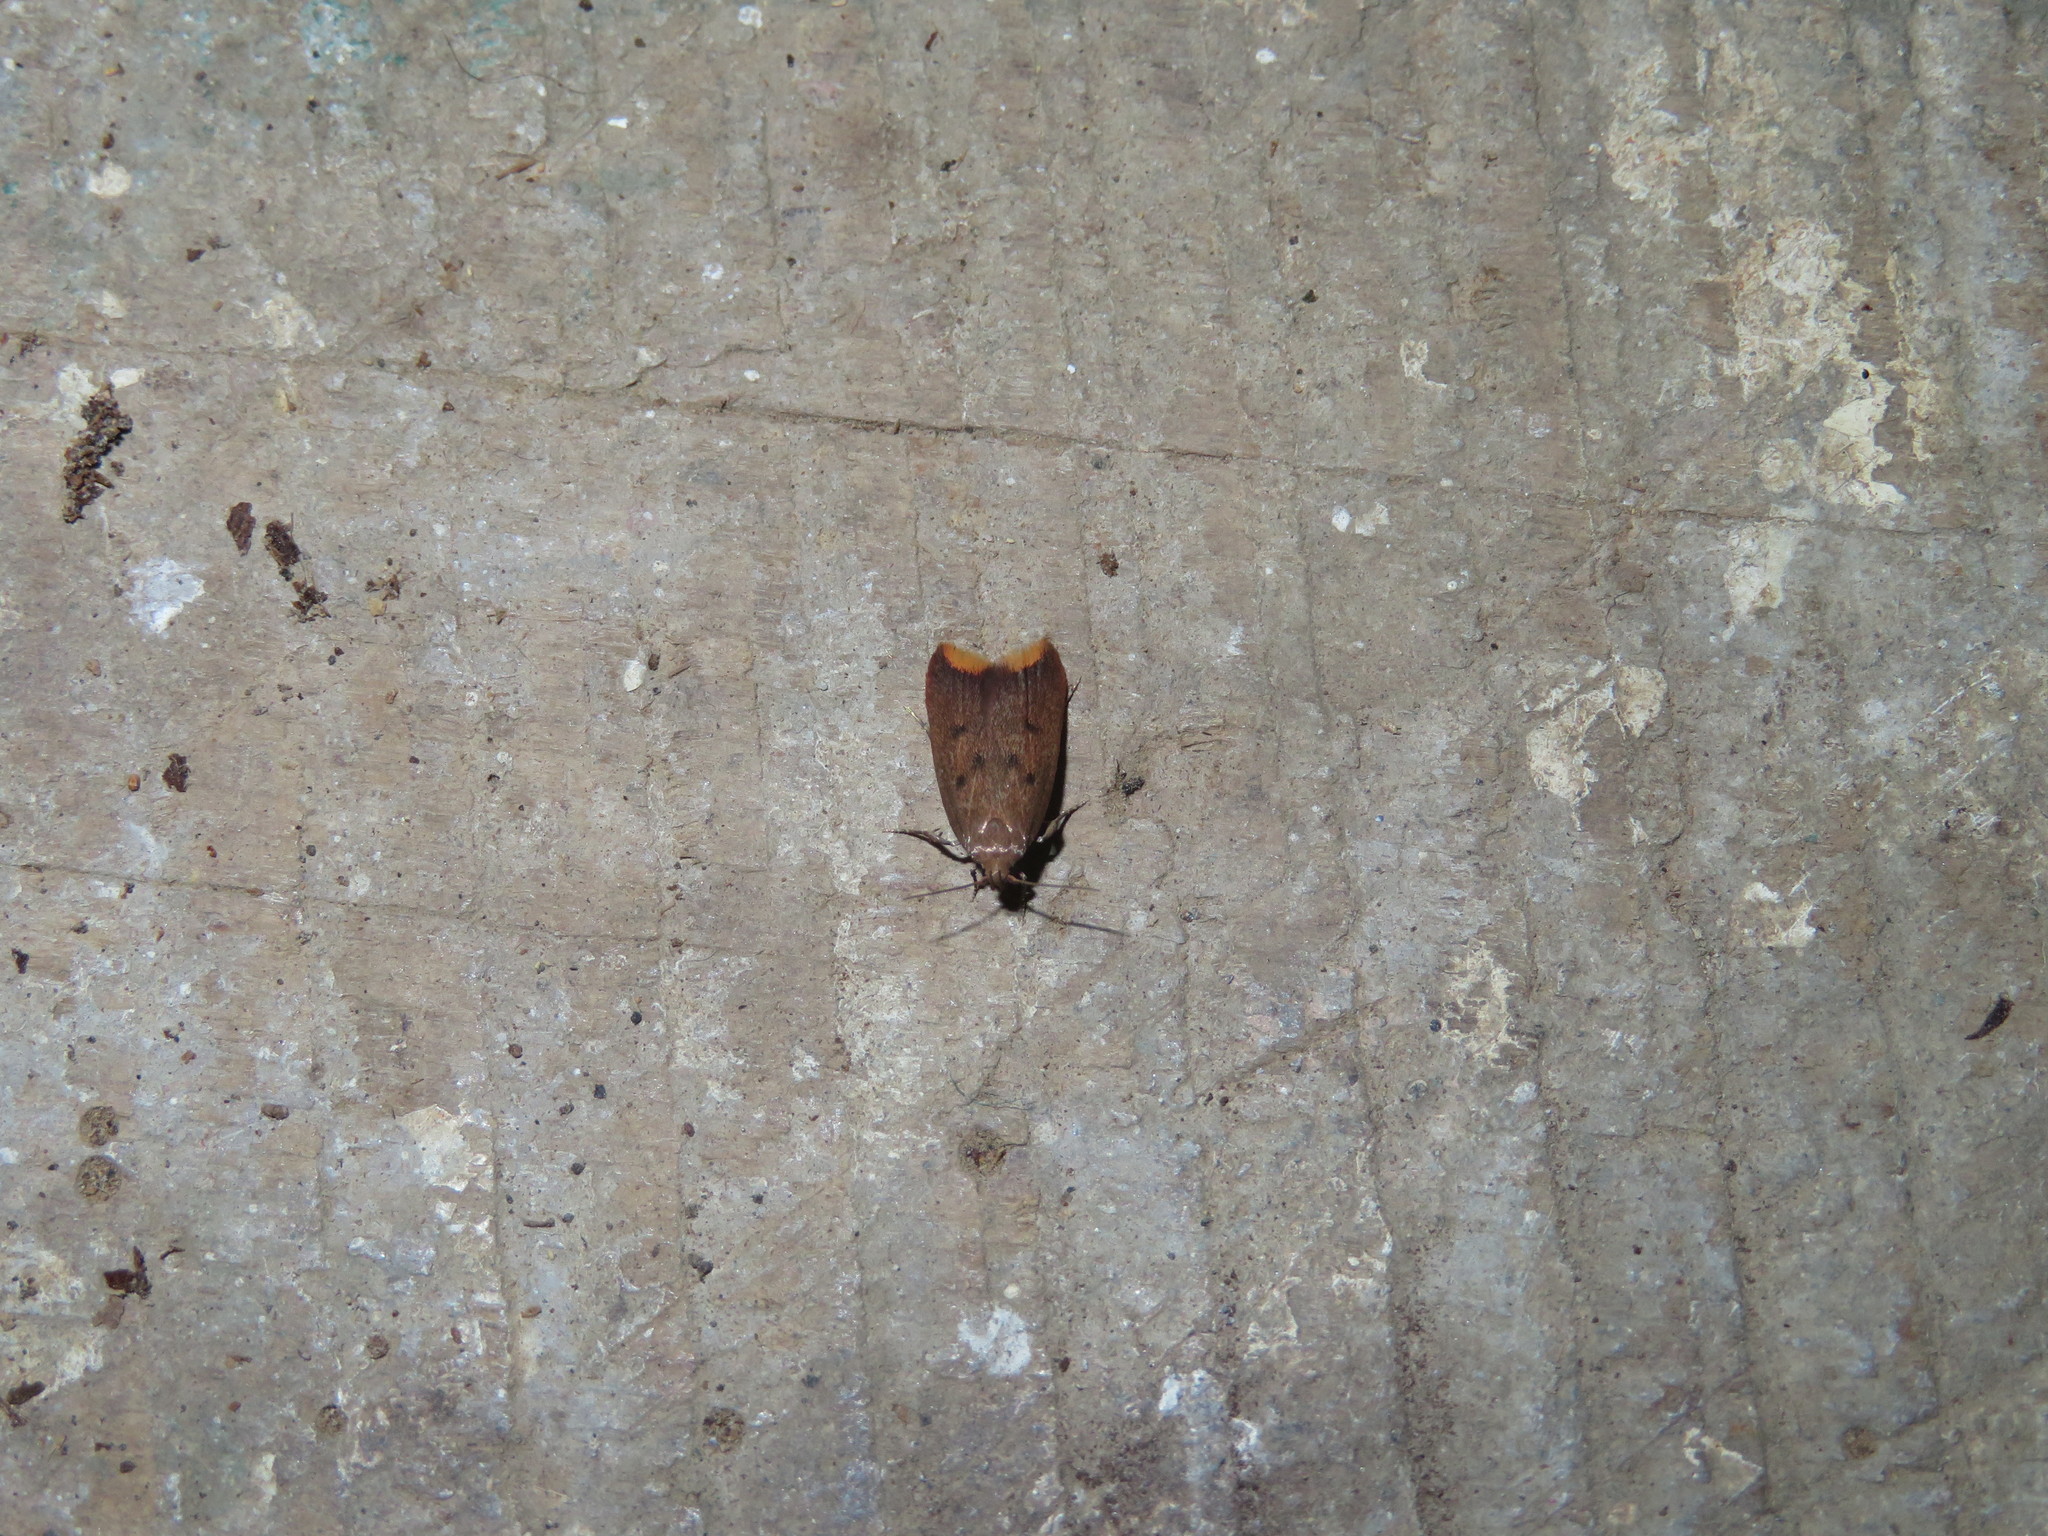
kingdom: Animalia
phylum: Arthropoda
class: Insecta
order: Lepidoptera
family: Oecophoridae
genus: Tachystola
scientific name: Tachystola acroxantha
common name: Ruddy streak
